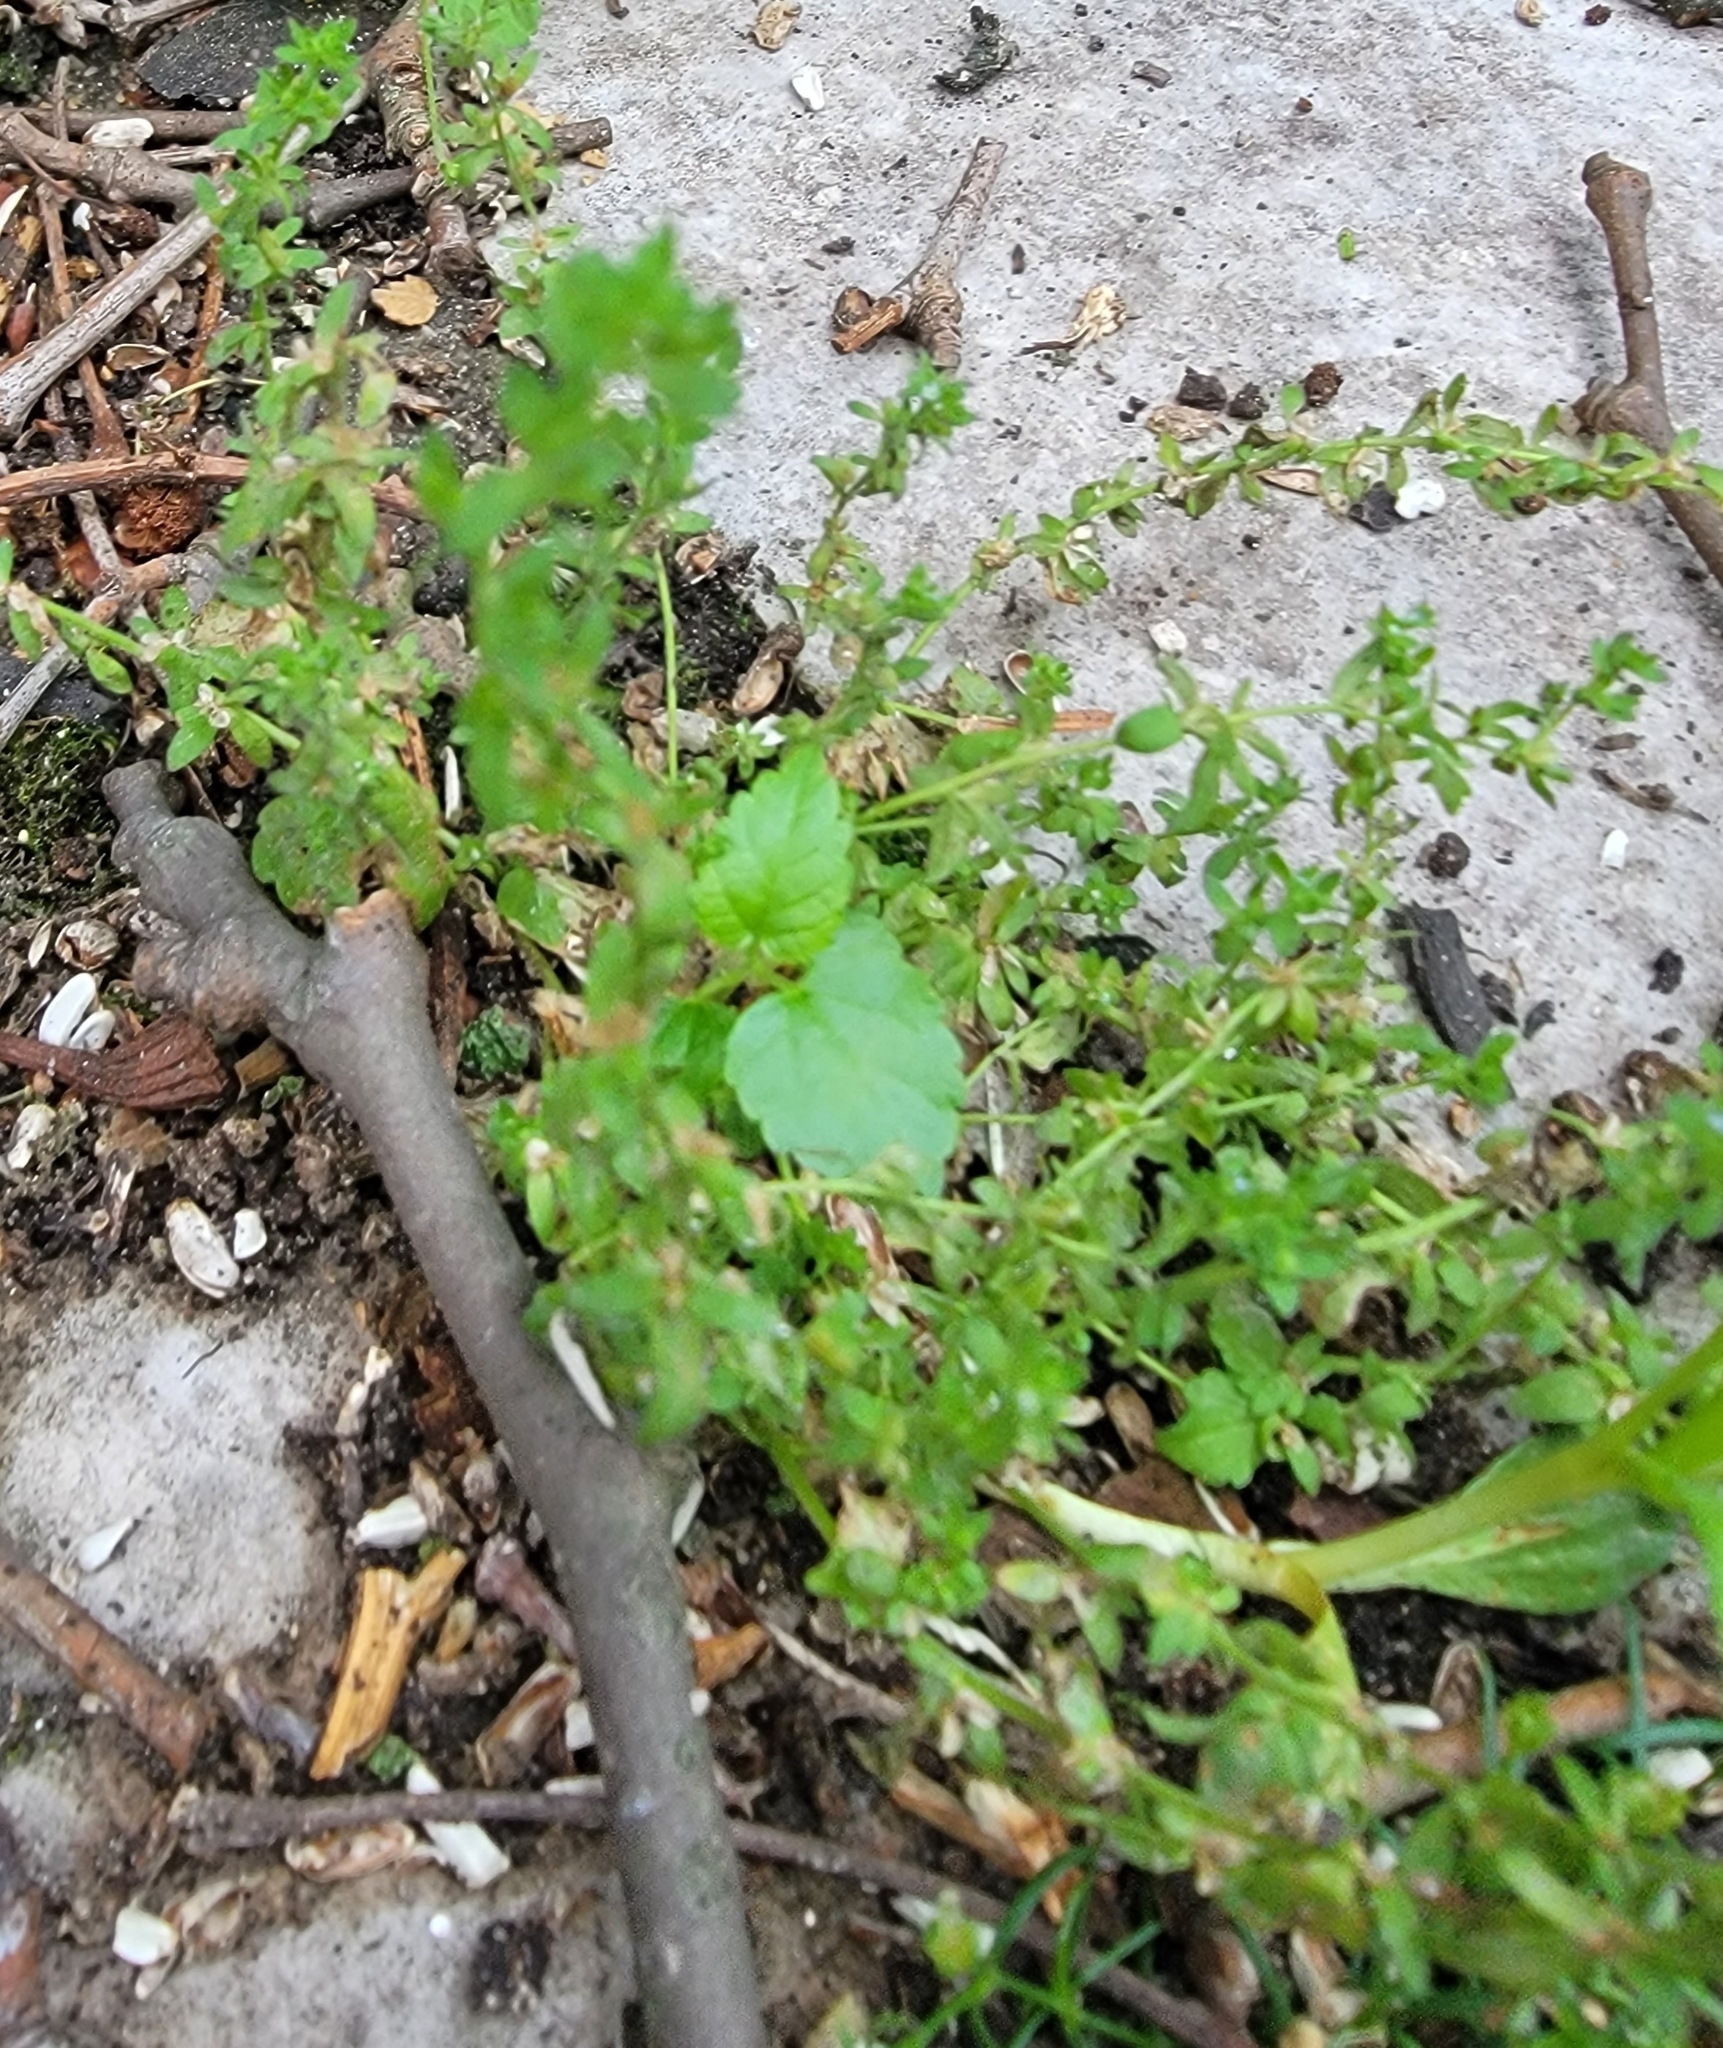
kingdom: Plantae
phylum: Tracheophyta
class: Magnoliopsida
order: Lamiales
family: Plantaginaceae
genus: Veronica
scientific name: Veronica arvensis
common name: Corn speedwell
